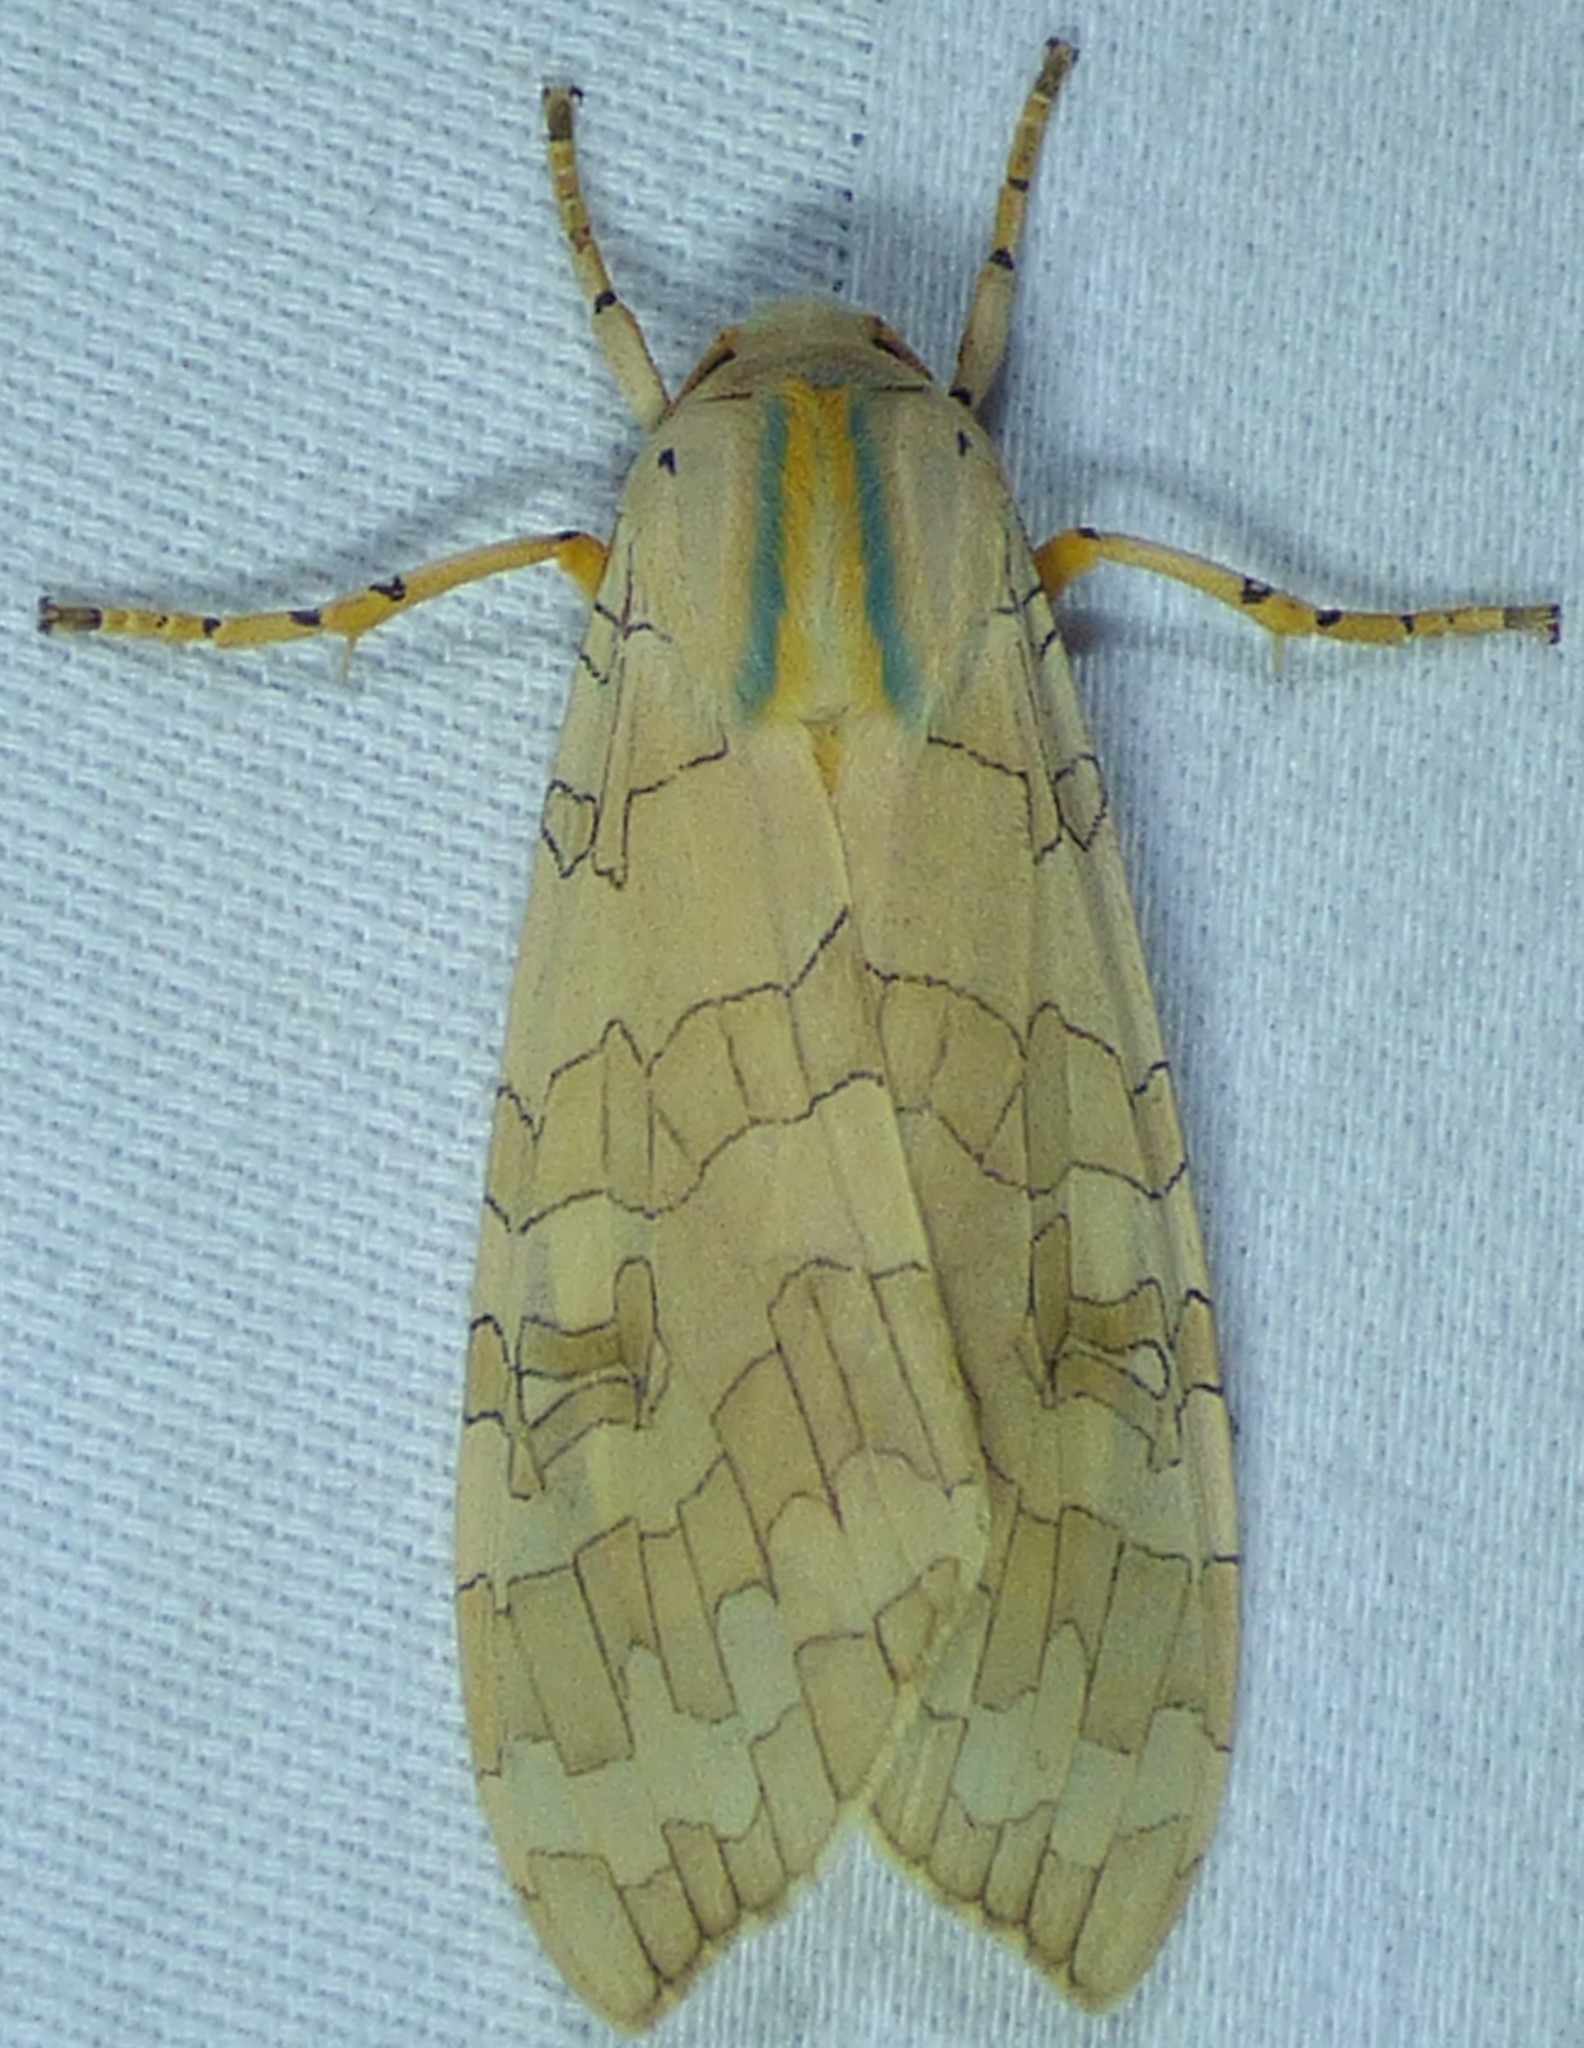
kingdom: Animalia
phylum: Arthropoda
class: Insecta
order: Lepidoptera
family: Erebidae
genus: Halysidota
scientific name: Halysidota
